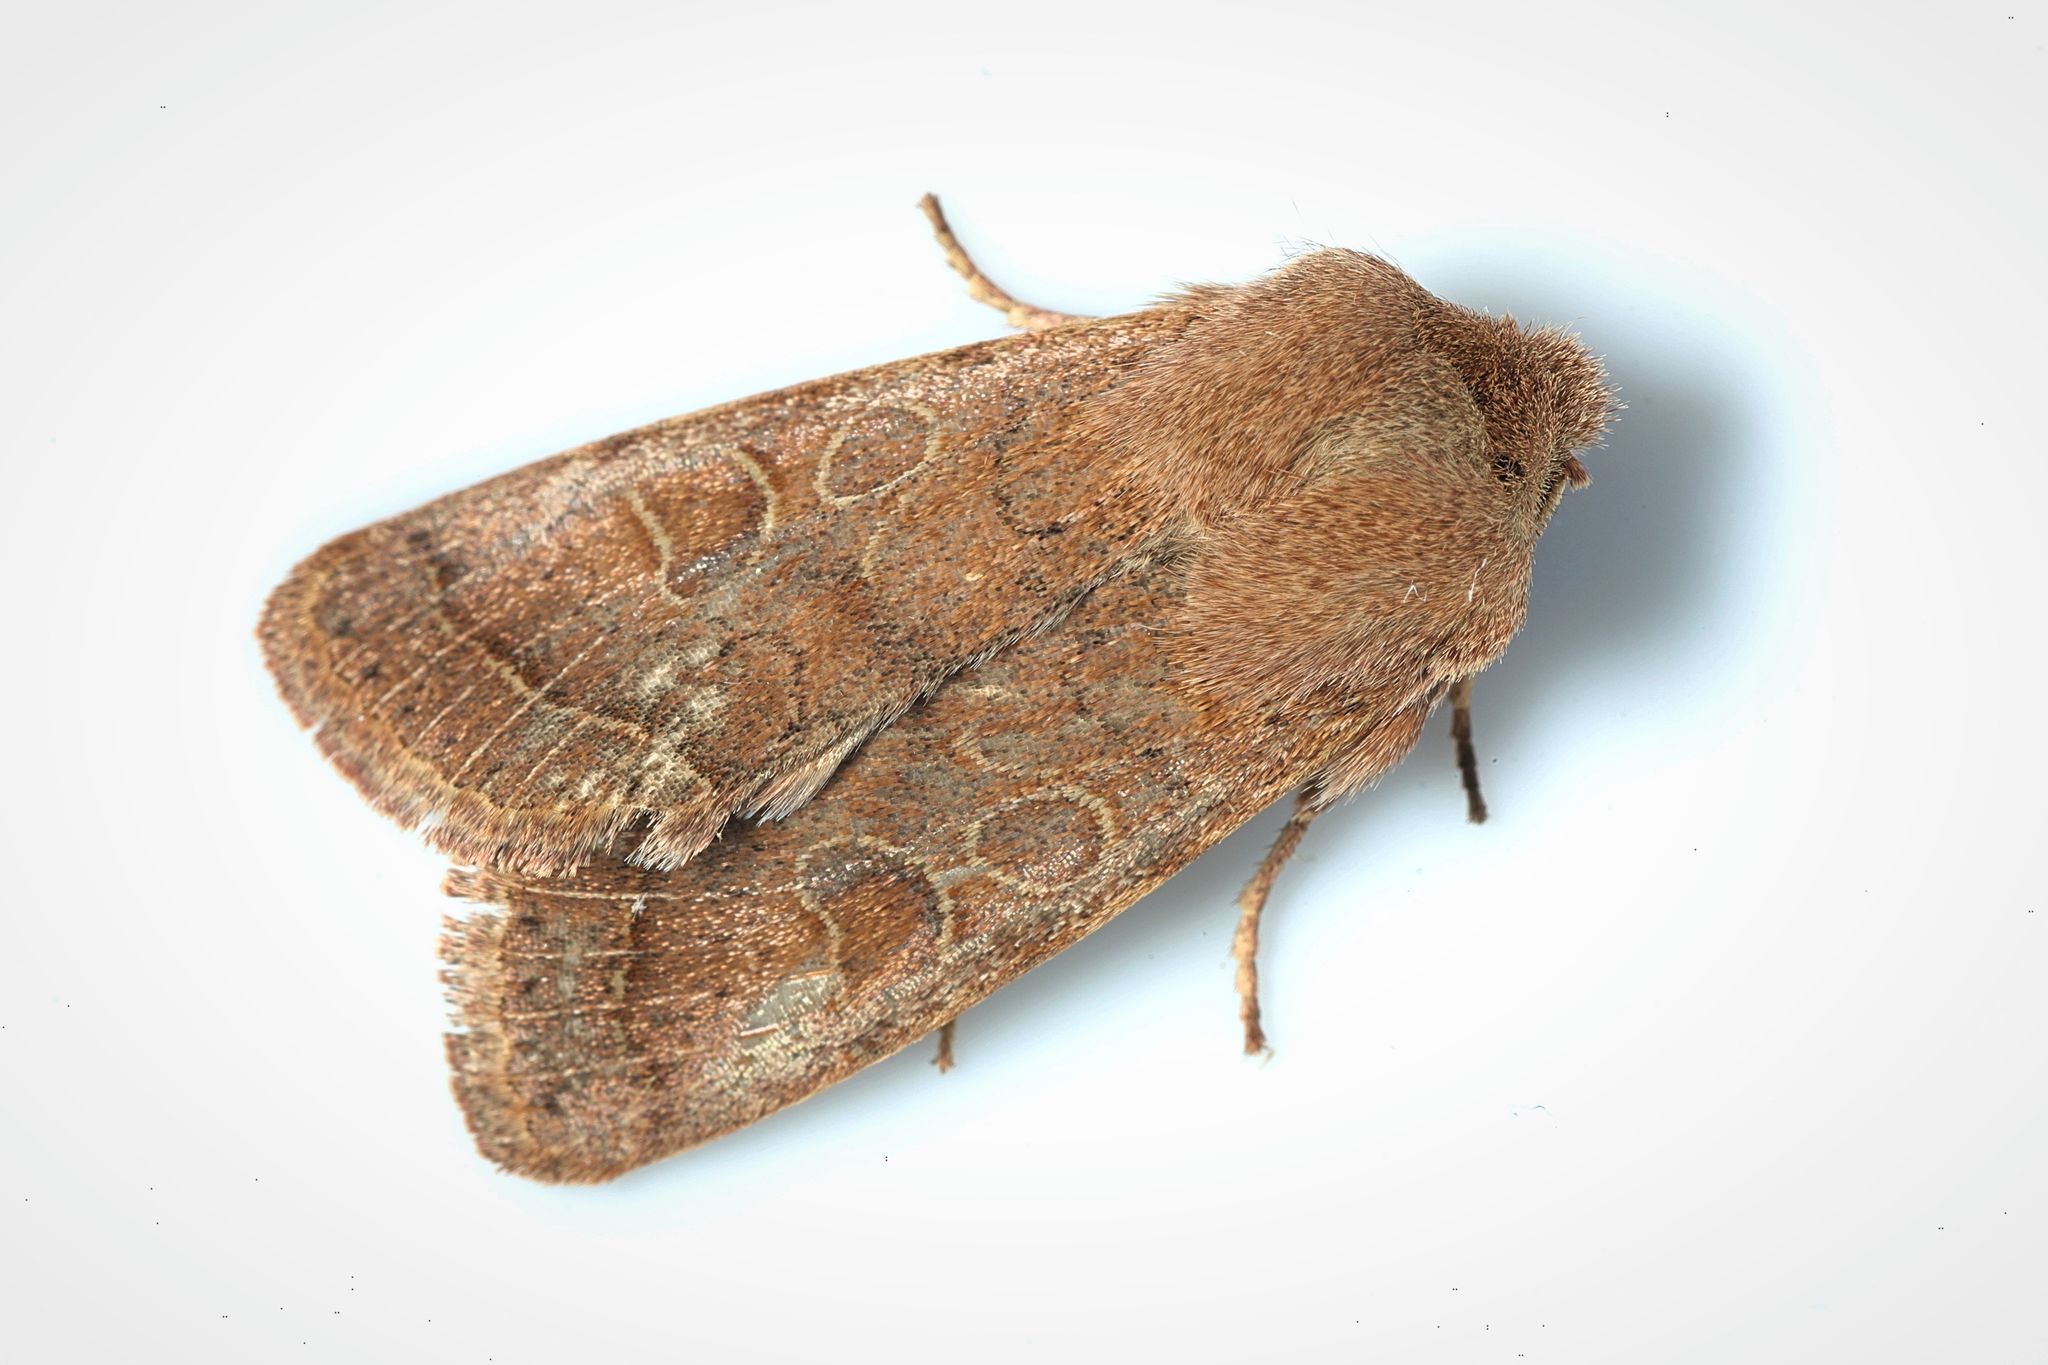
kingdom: Animalia
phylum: Arthropoda
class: Insecta
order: Lepidoptera
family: Noctuidae
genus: Orthosia
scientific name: Orthosia cerasi
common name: Common quaker
